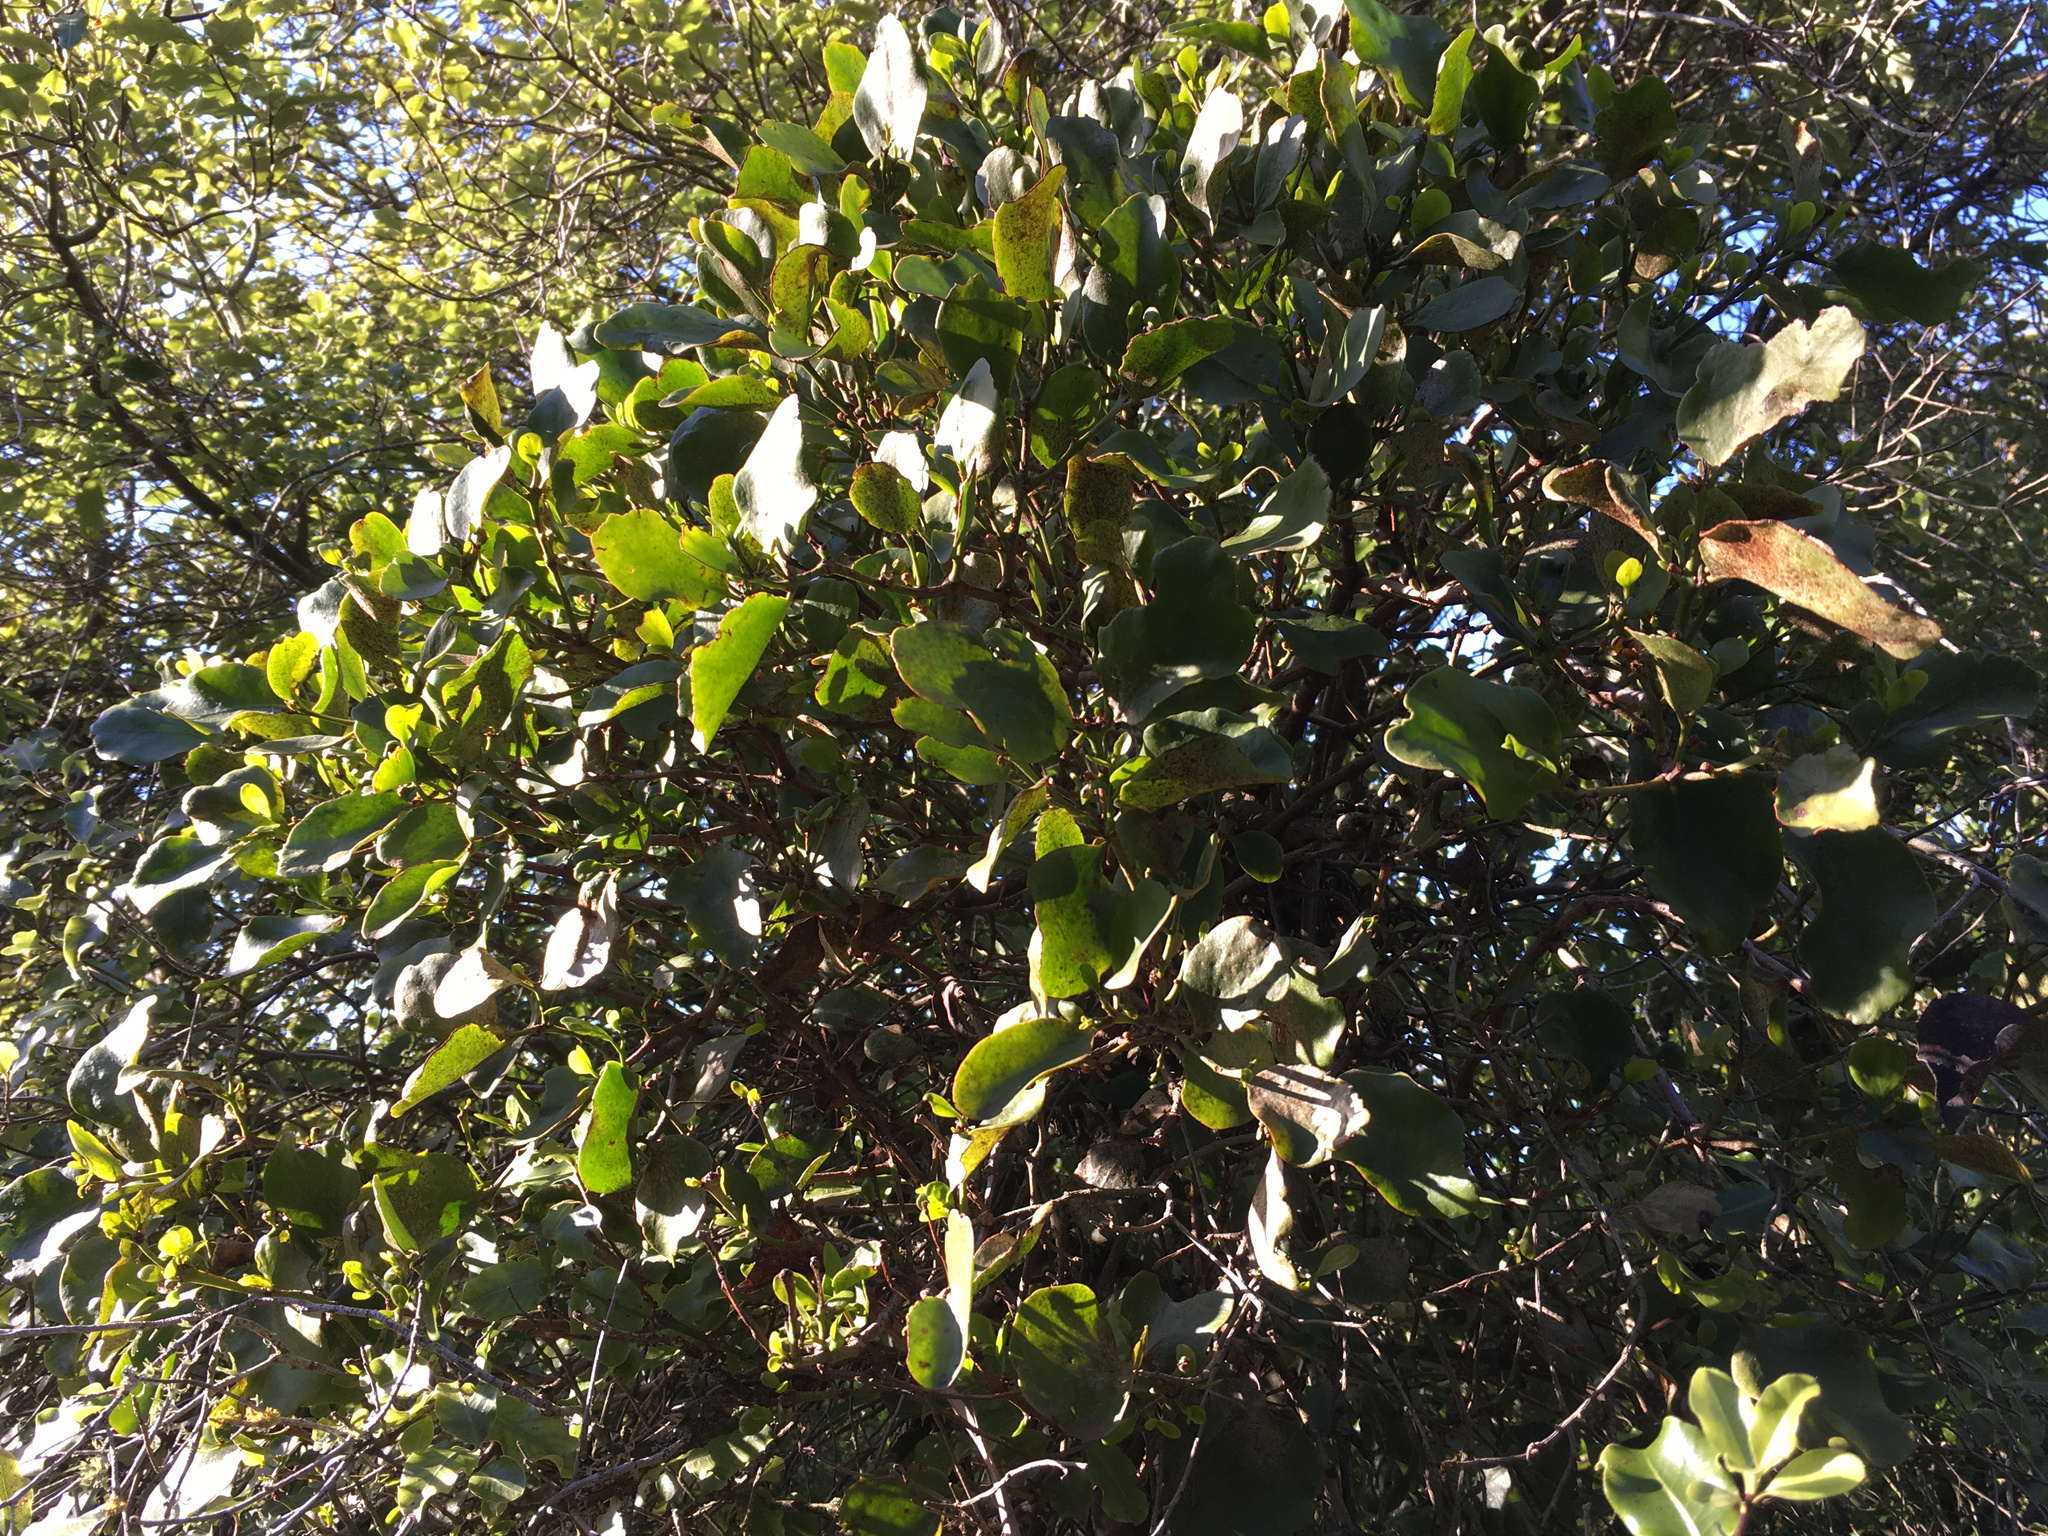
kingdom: Plantae
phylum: Tracheophyta
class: Magnoliopsida
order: Santalales
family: Loranthaceae
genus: Ileostylus
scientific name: Ileostylus micranthus
